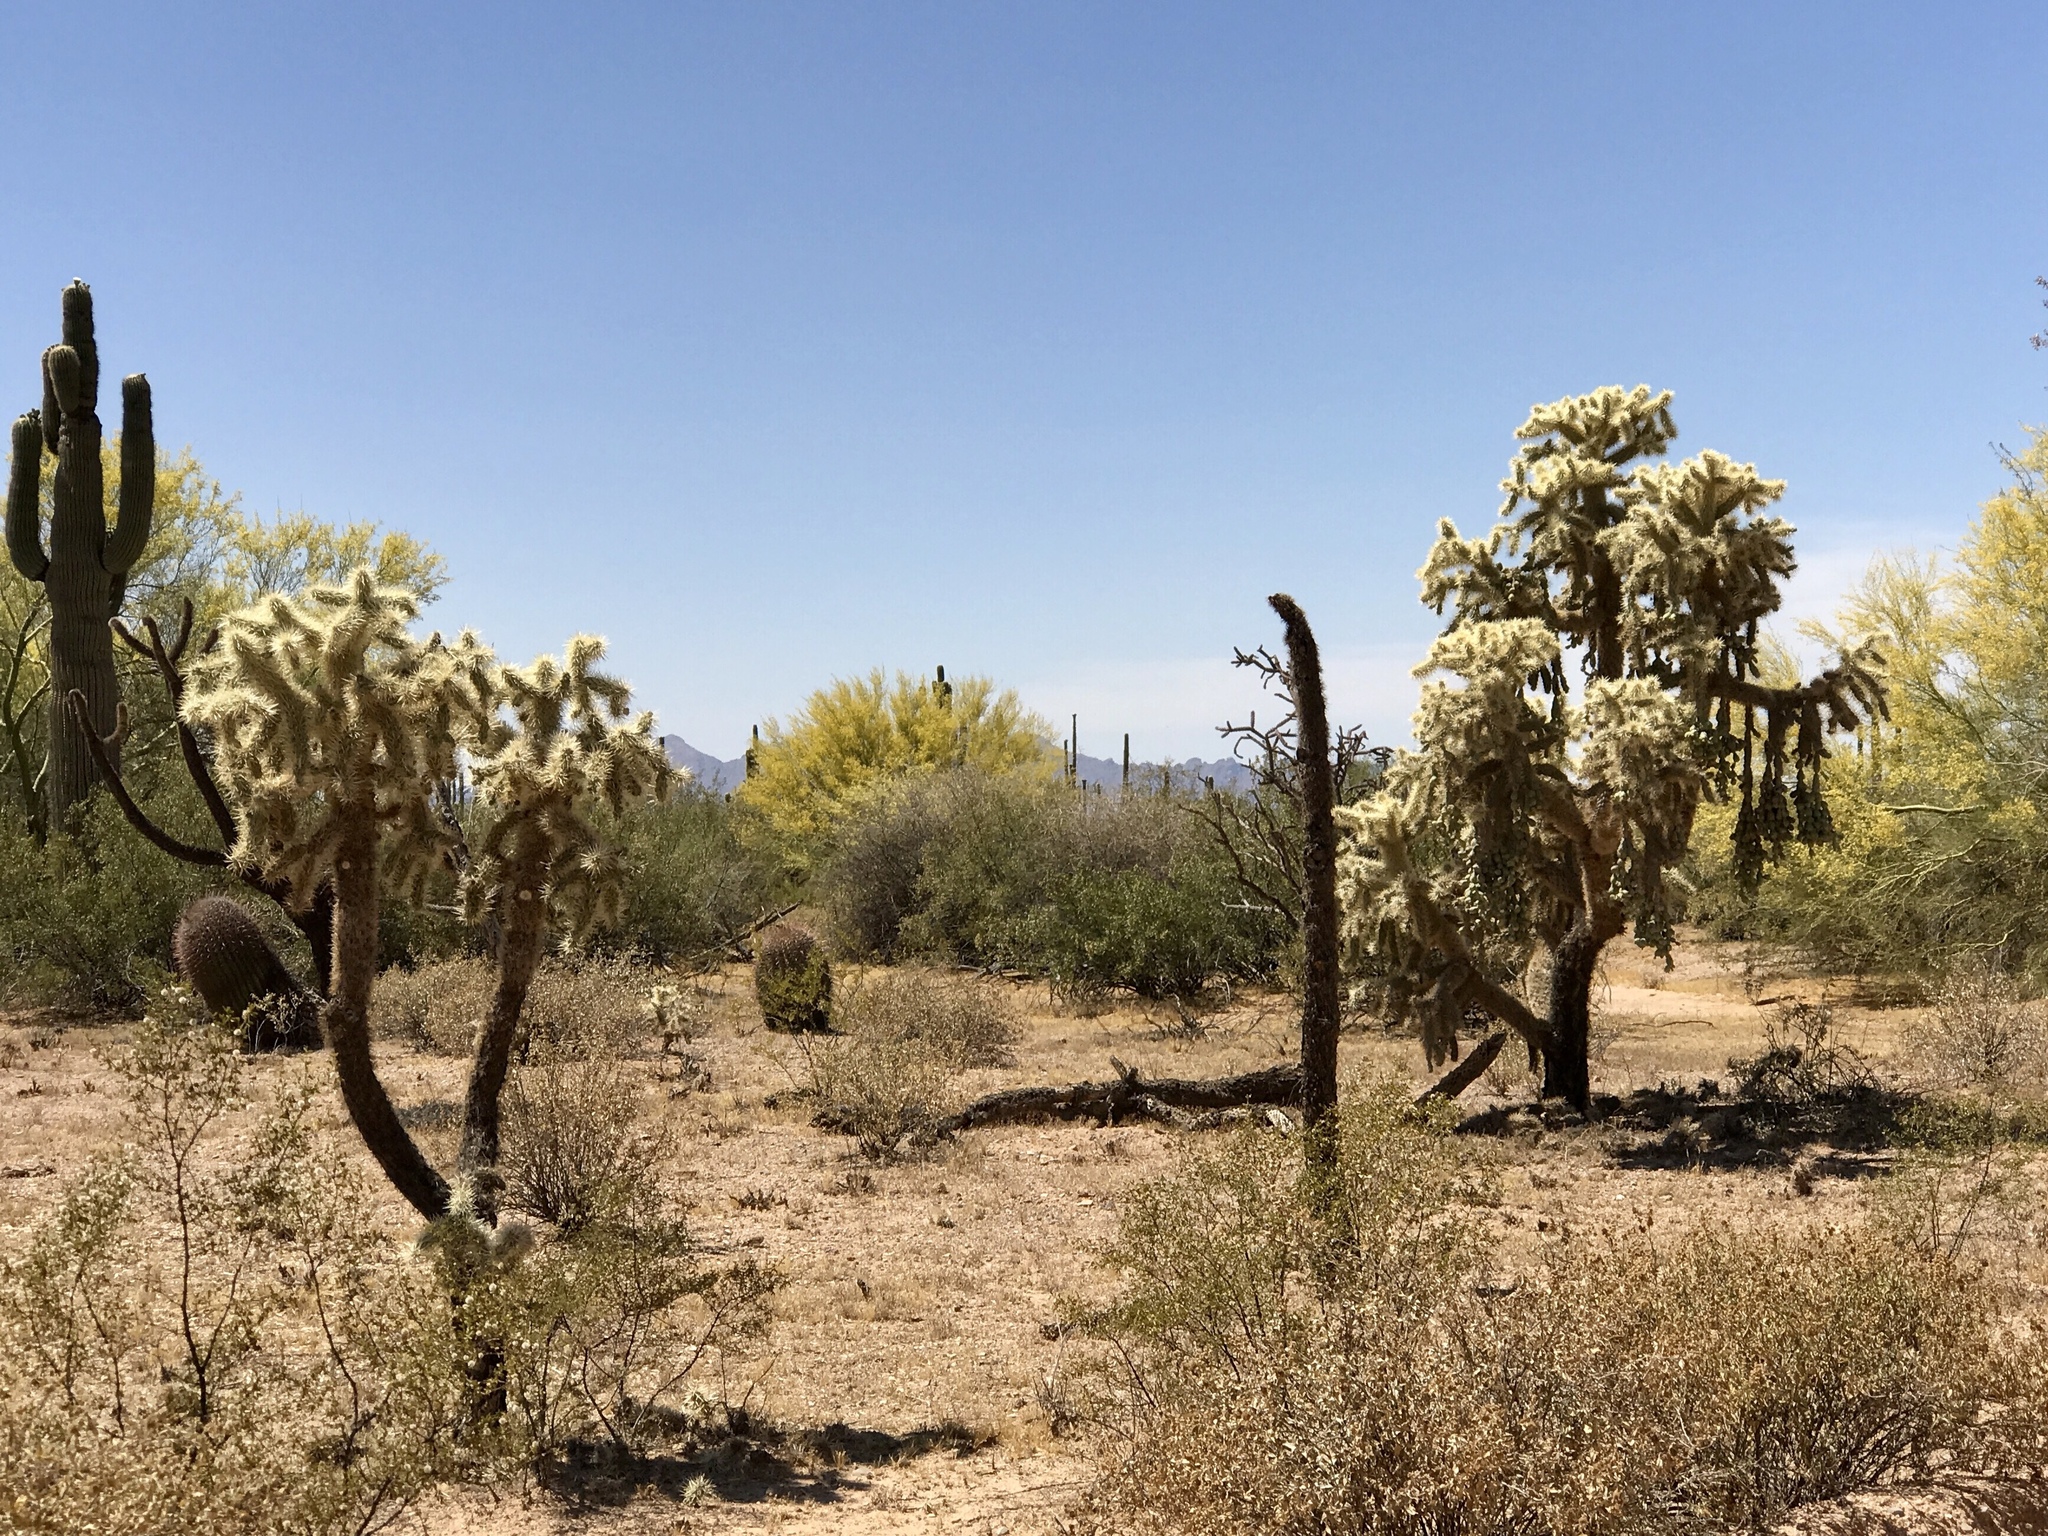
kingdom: Plantae
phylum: Tracheophyta
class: Magnoliopsida
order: Caryophyllales
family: Cactaceae
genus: Cylindropuntia
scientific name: Cylindropuntia fulgida
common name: Jumping cholla
